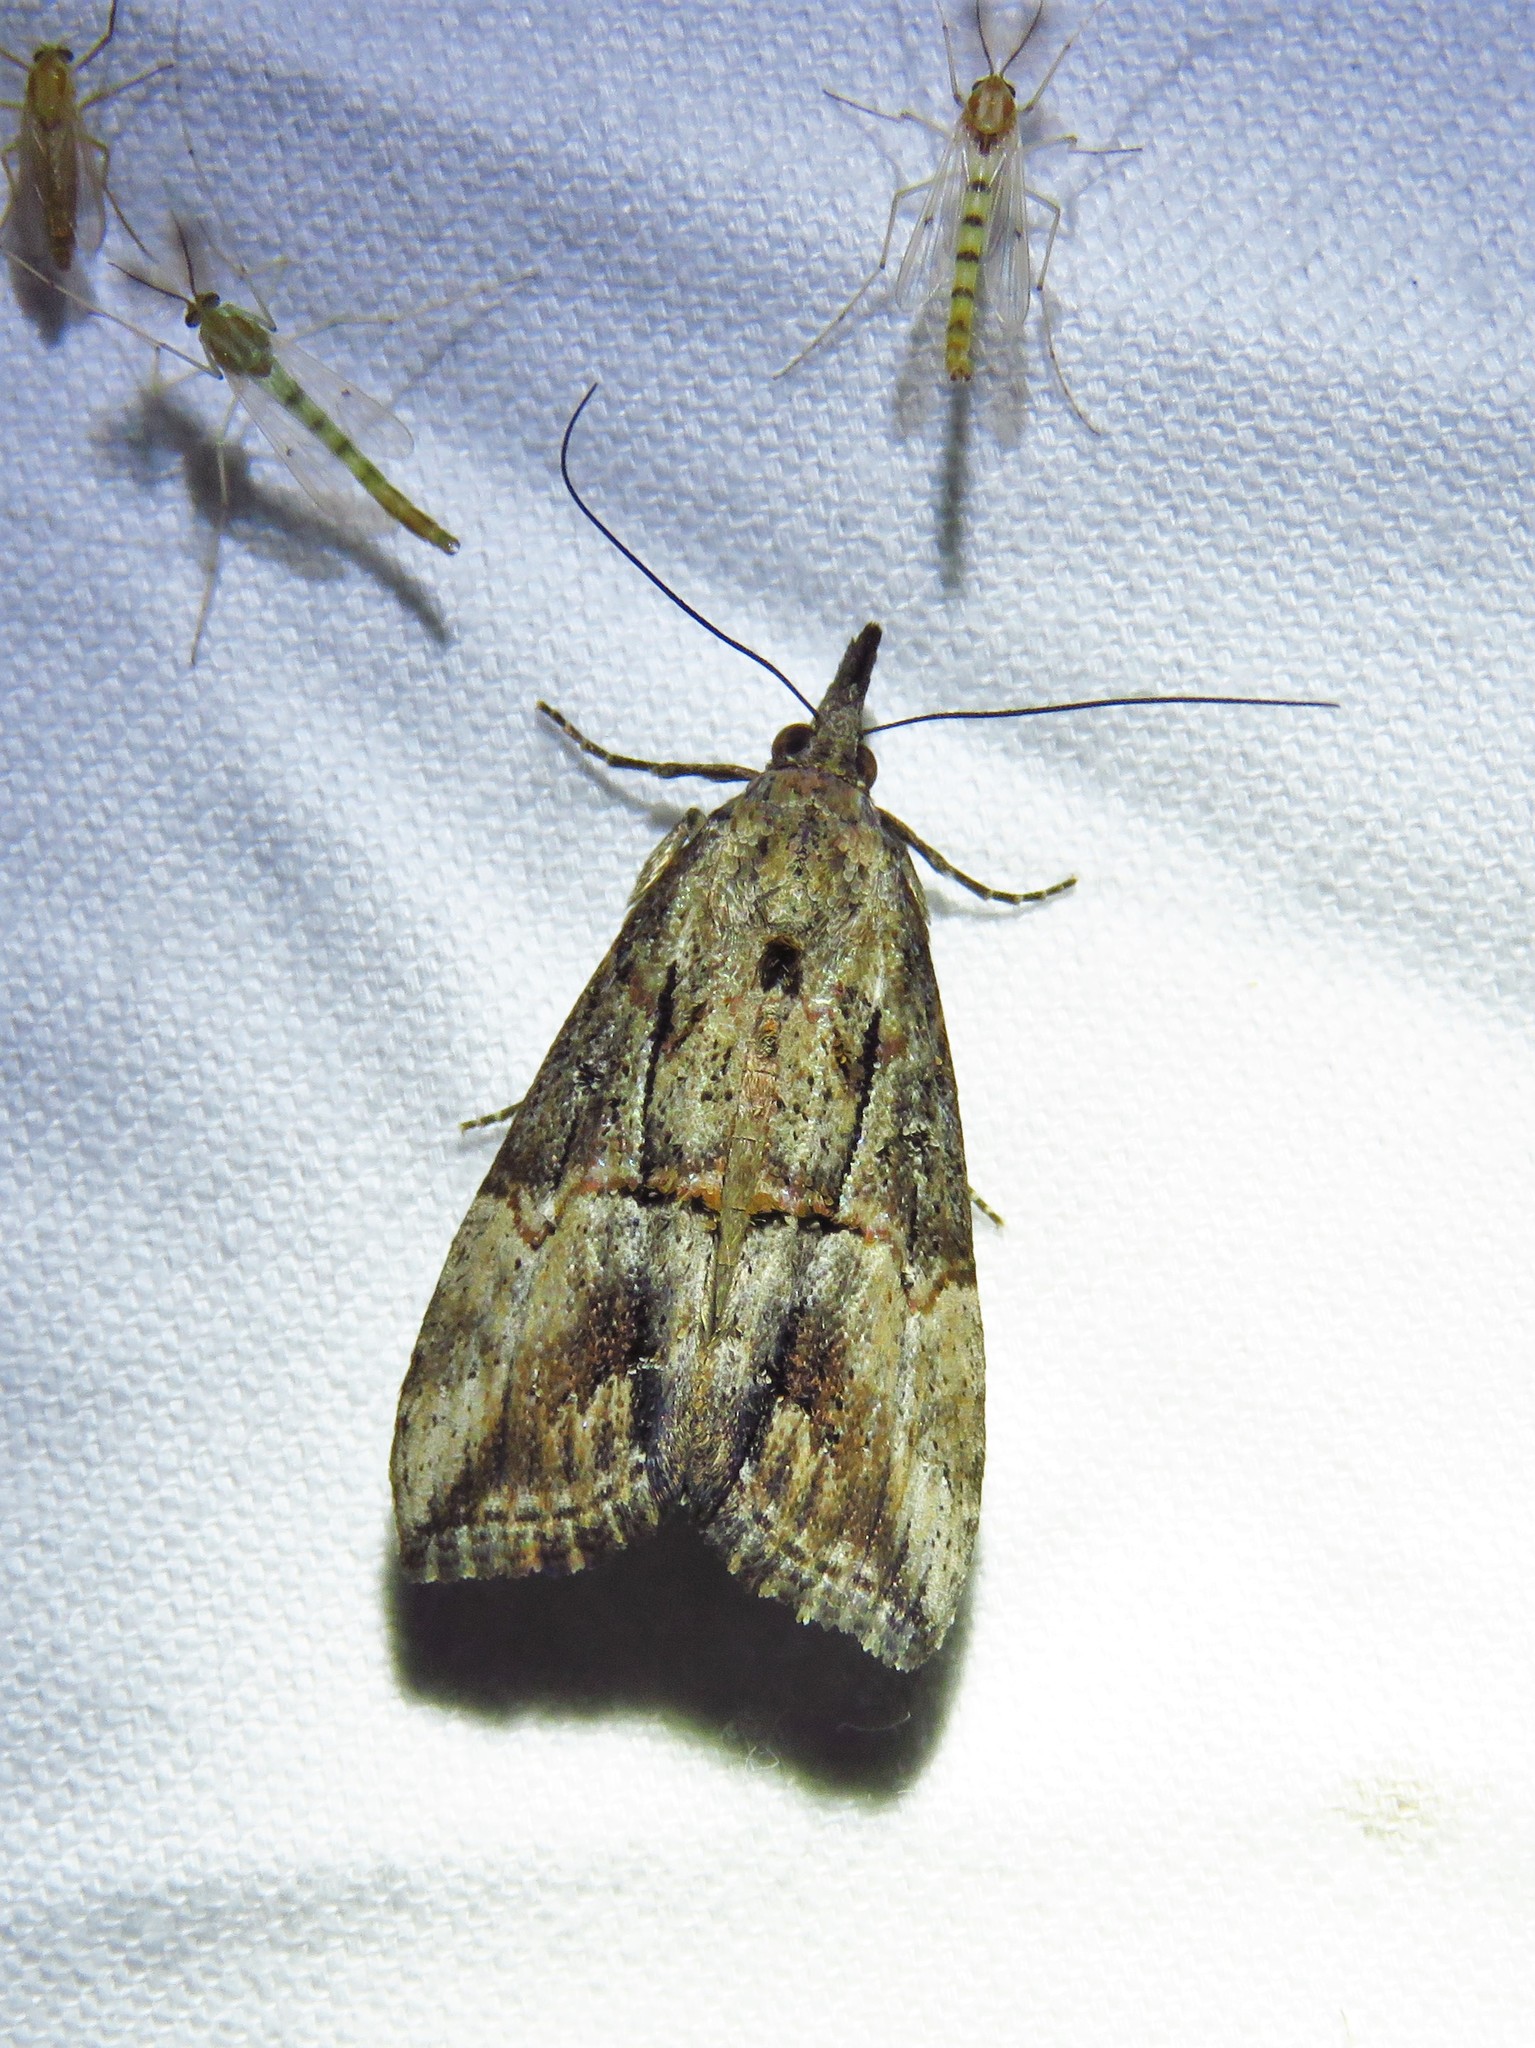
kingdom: Animalia
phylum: Arthropoda
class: Insecta
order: Lepidoptera
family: Erebidae
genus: Hypena
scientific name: Hypena scabra
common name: Green cloverworm
